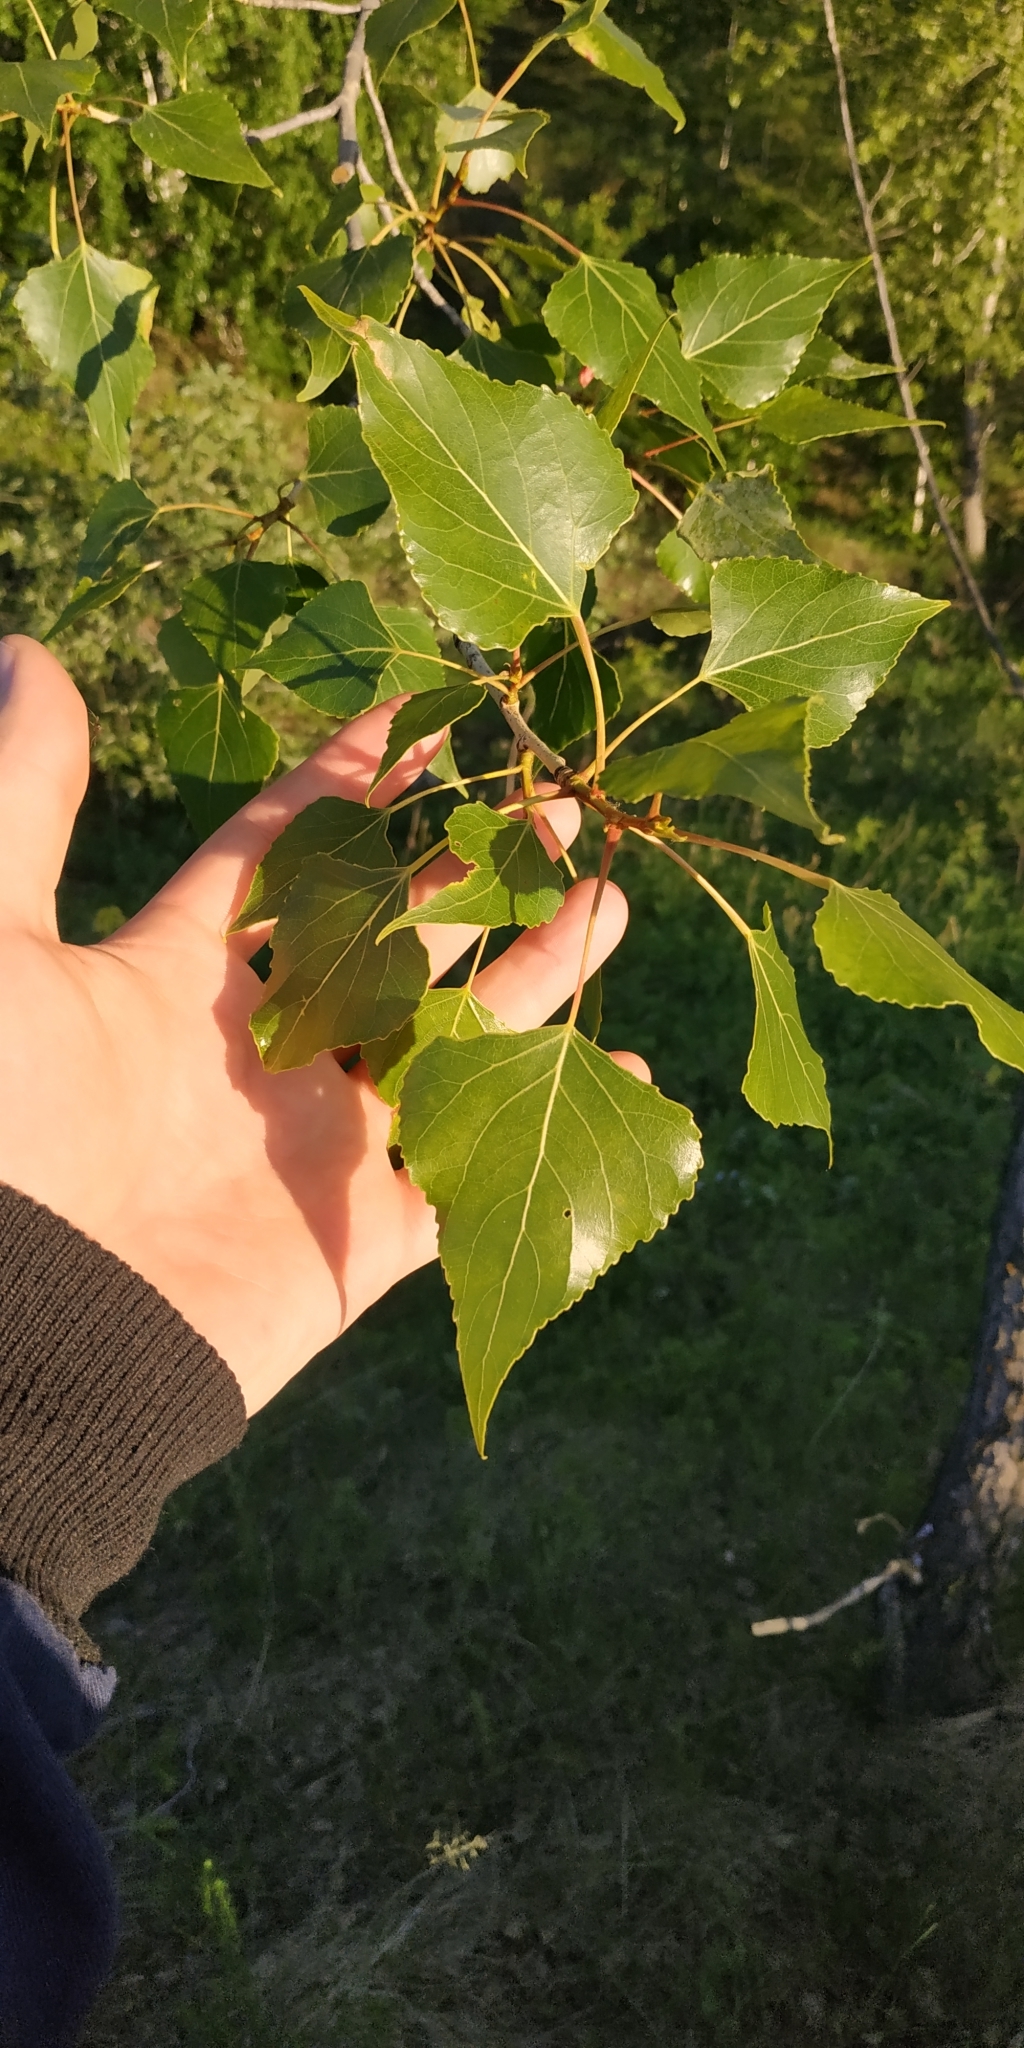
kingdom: Plantae
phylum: Tracheophyta
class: Magnoliopsida
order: Malpighiales
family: Salicaceae
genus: Populus
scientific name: Populus nigra
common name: Black poplar
